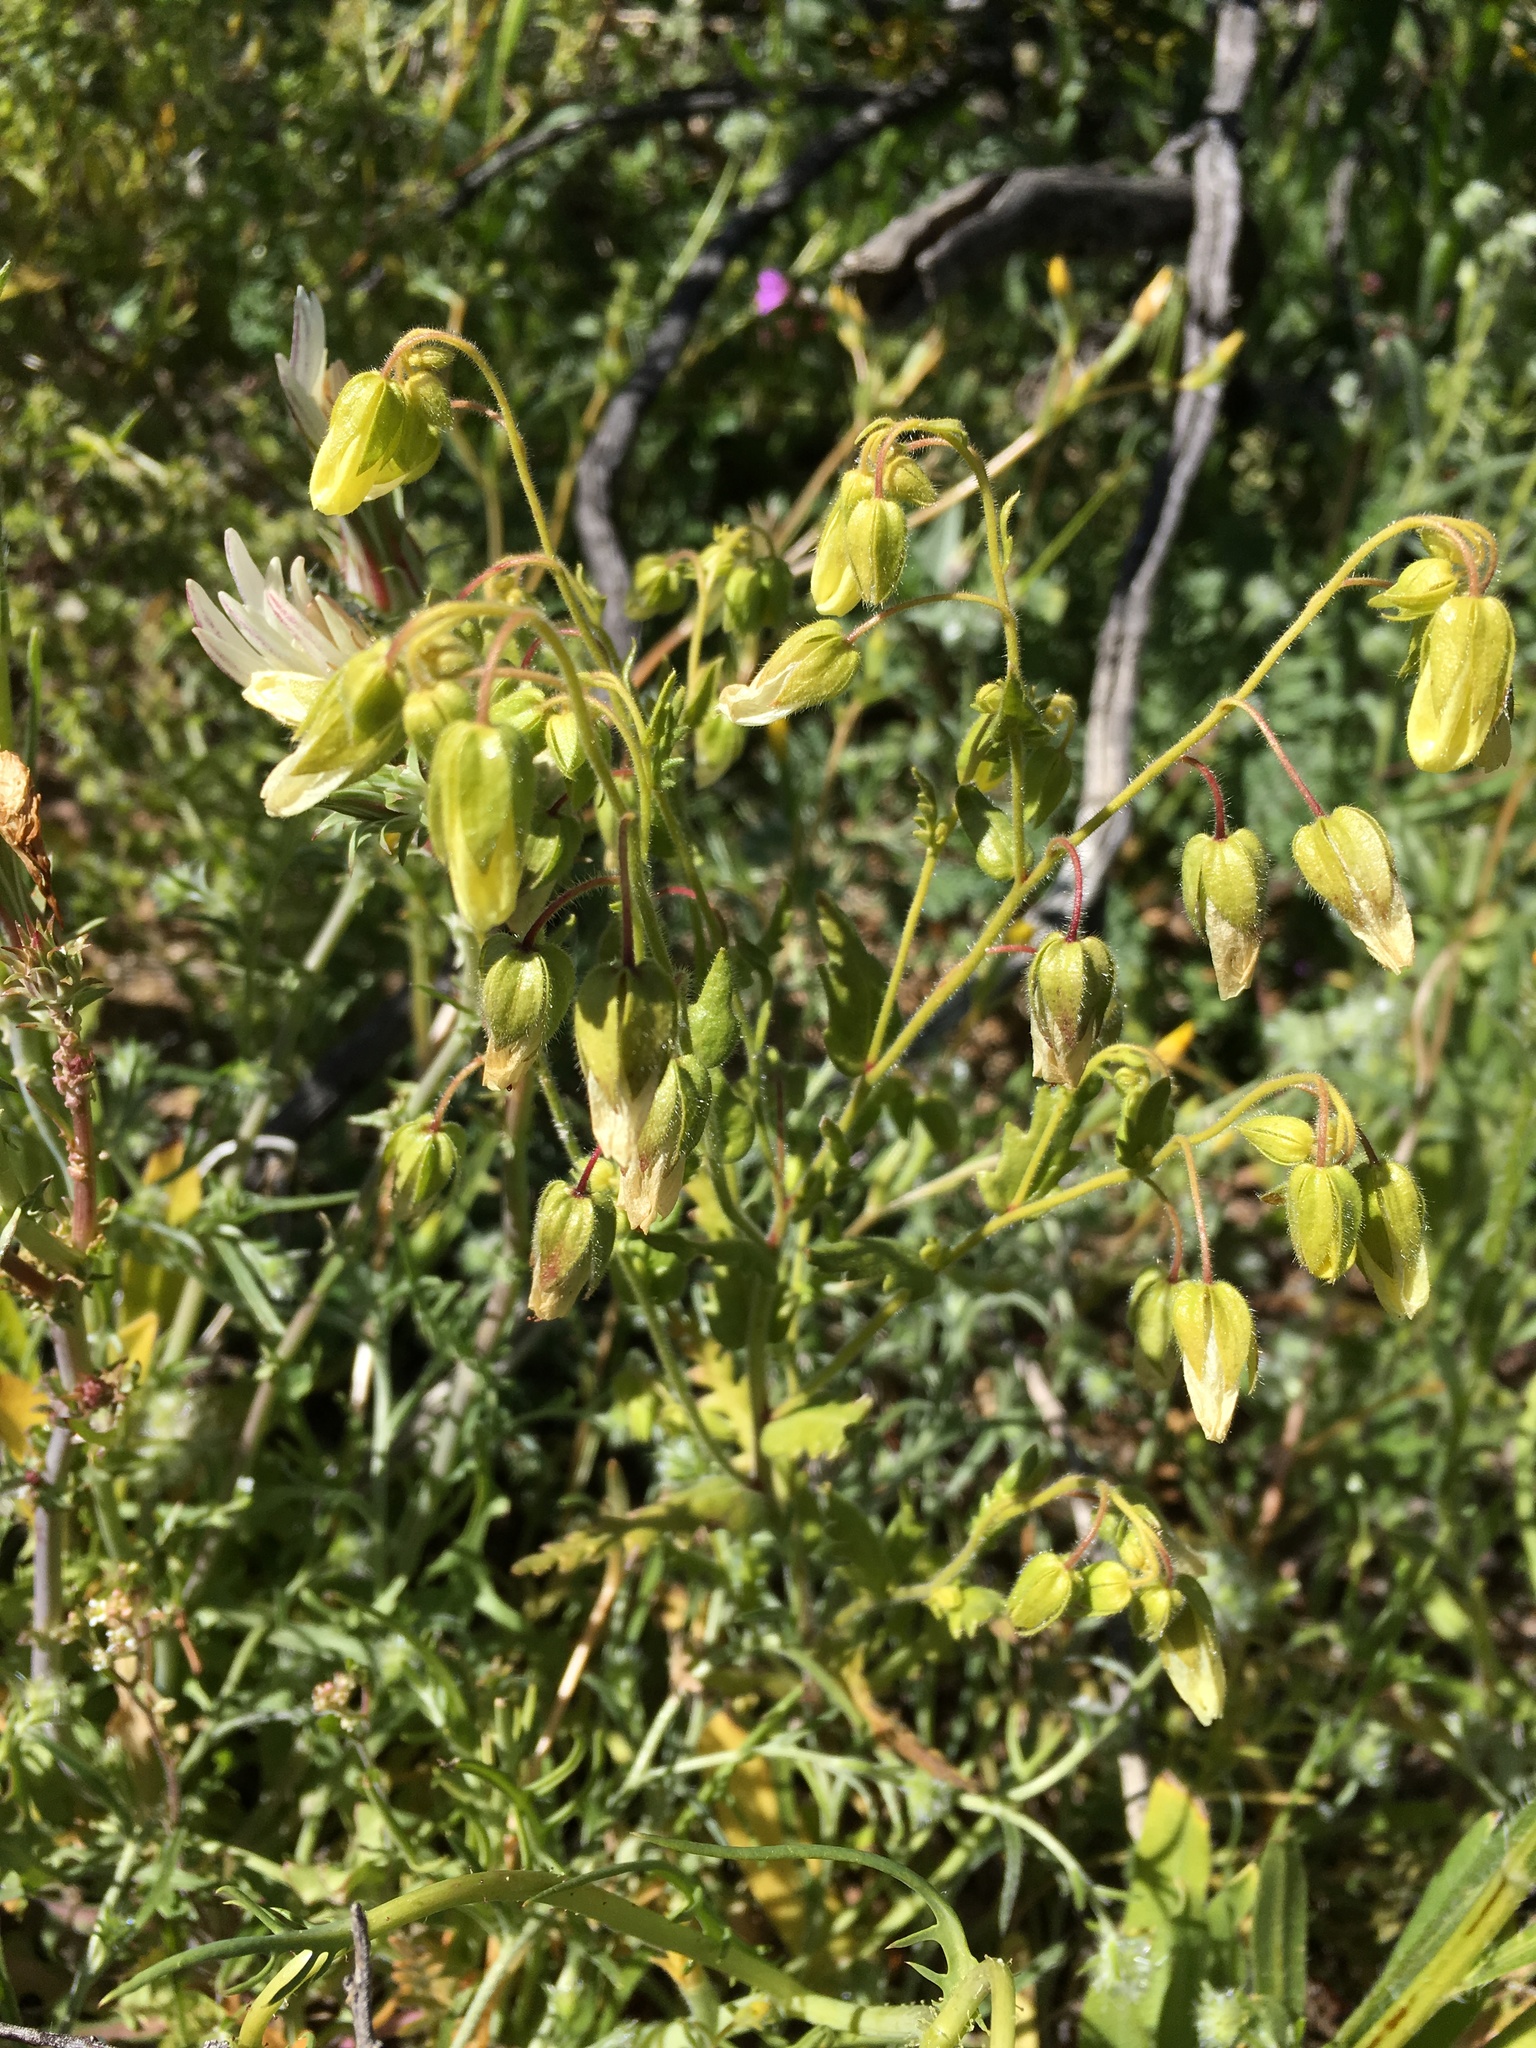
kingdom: Plantae
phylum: Tracheophyta
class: Magnoliopsida
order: Boraginales
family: Hydrophyllaceae
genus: Emmenanthe
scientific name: Emmenanthe penduliflora
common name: Whispering-bells
